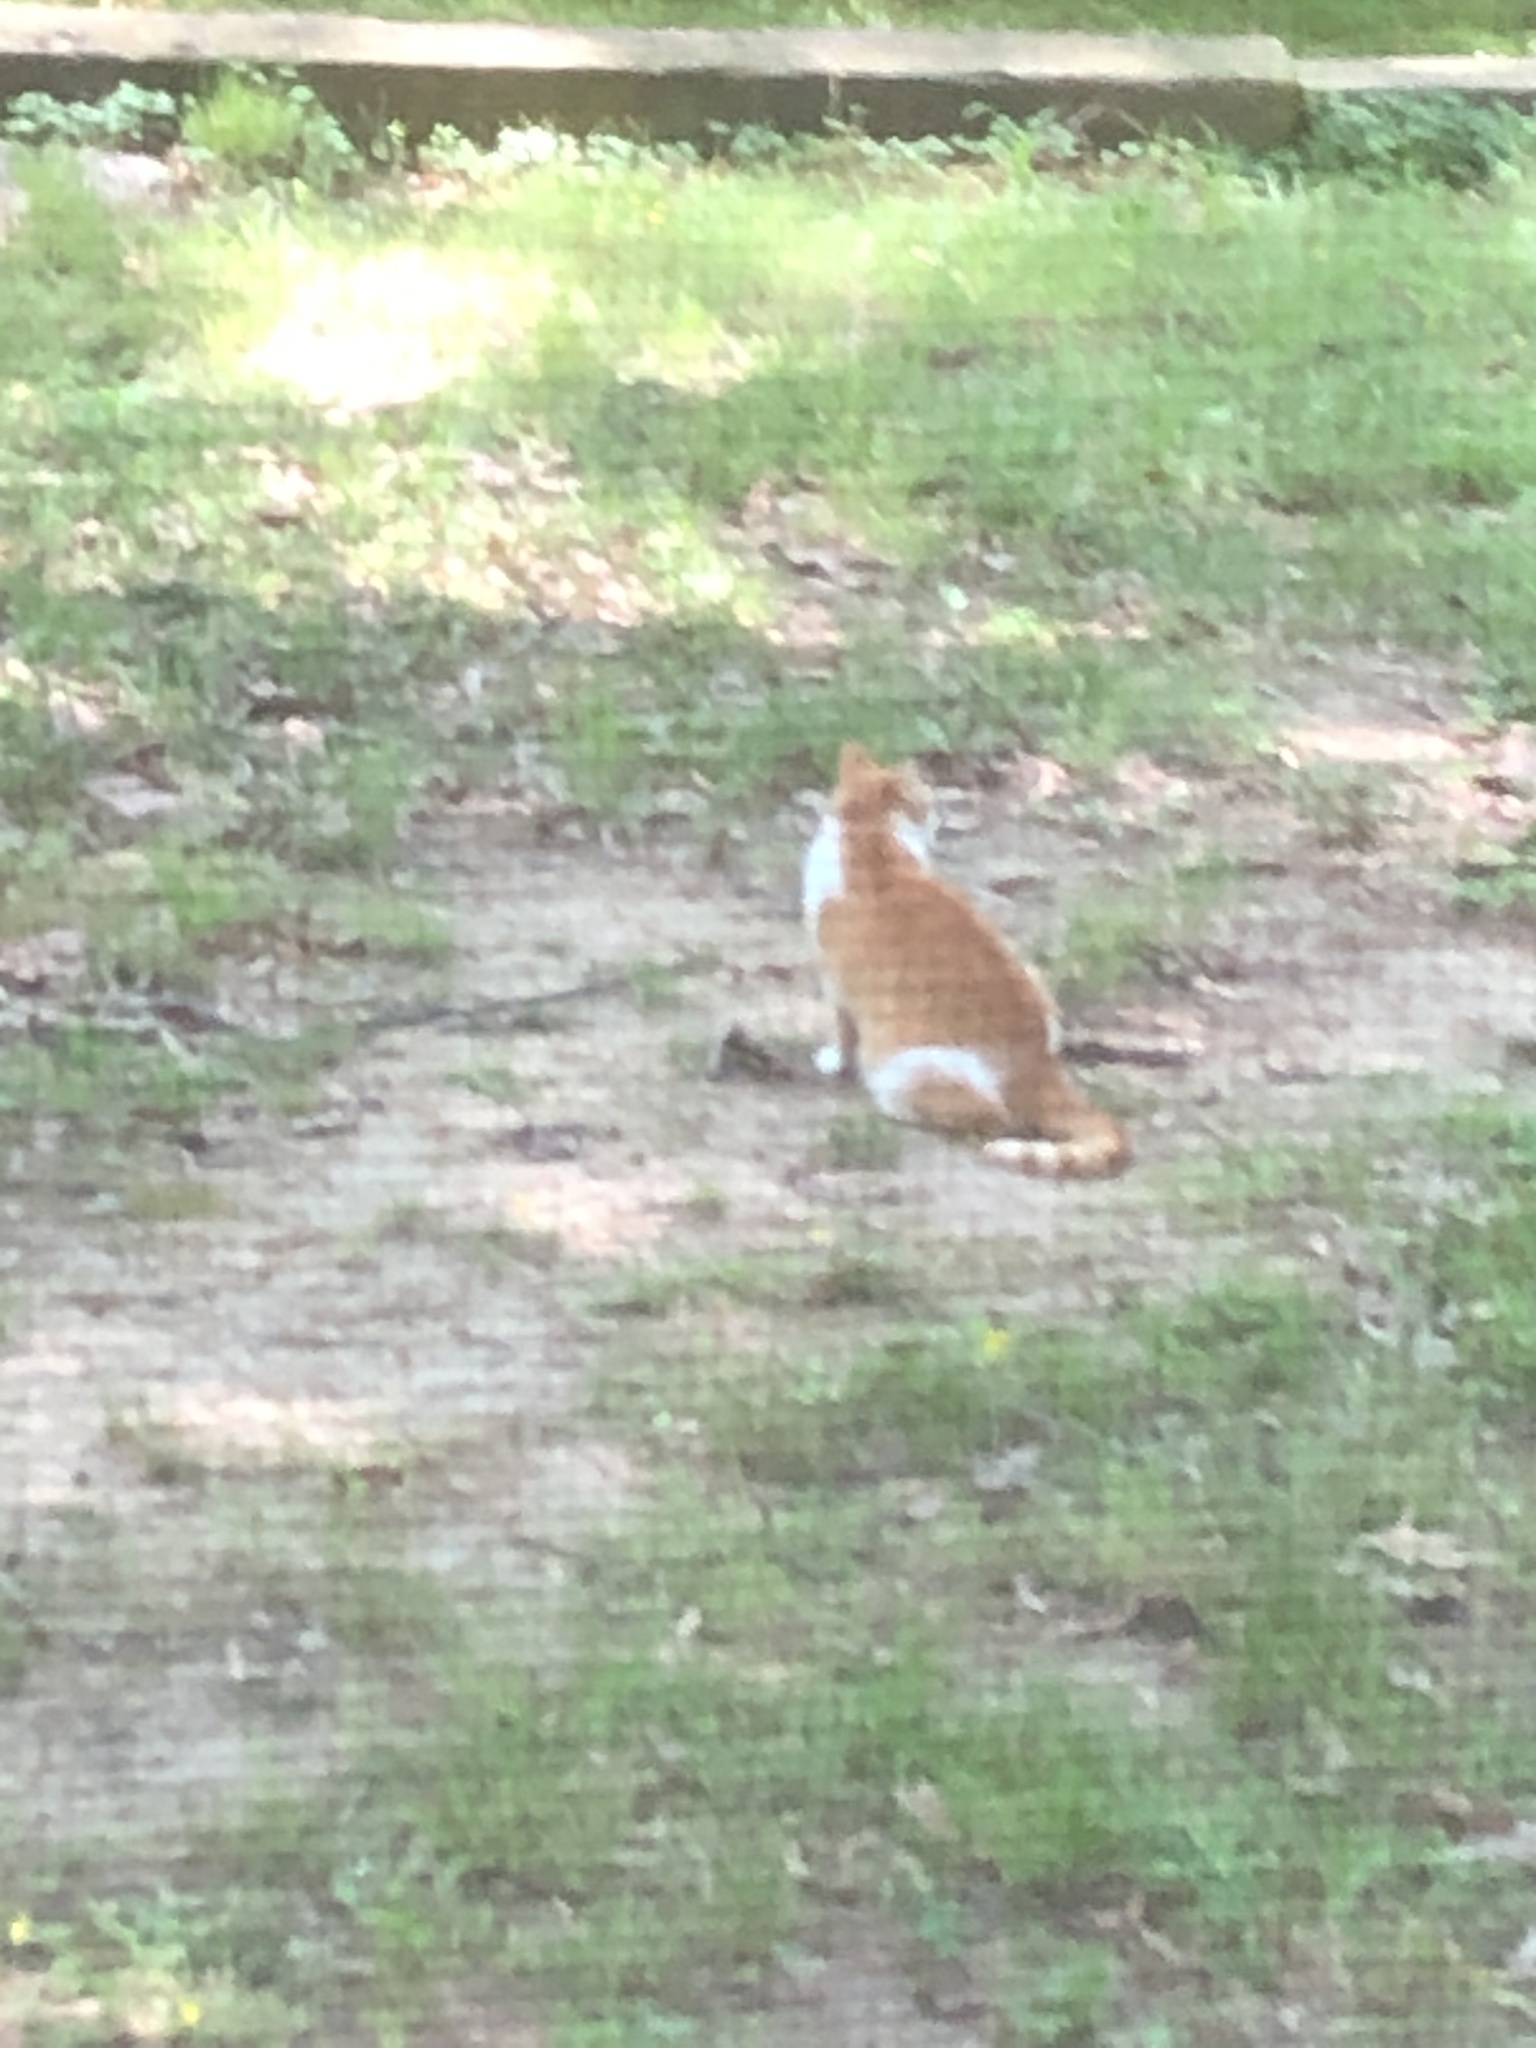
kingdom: Animalia
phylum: Chordata
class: Mammalia
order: Carnivora
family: Felidae
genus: Felis
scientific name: Felis catus
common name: Domestic cat
